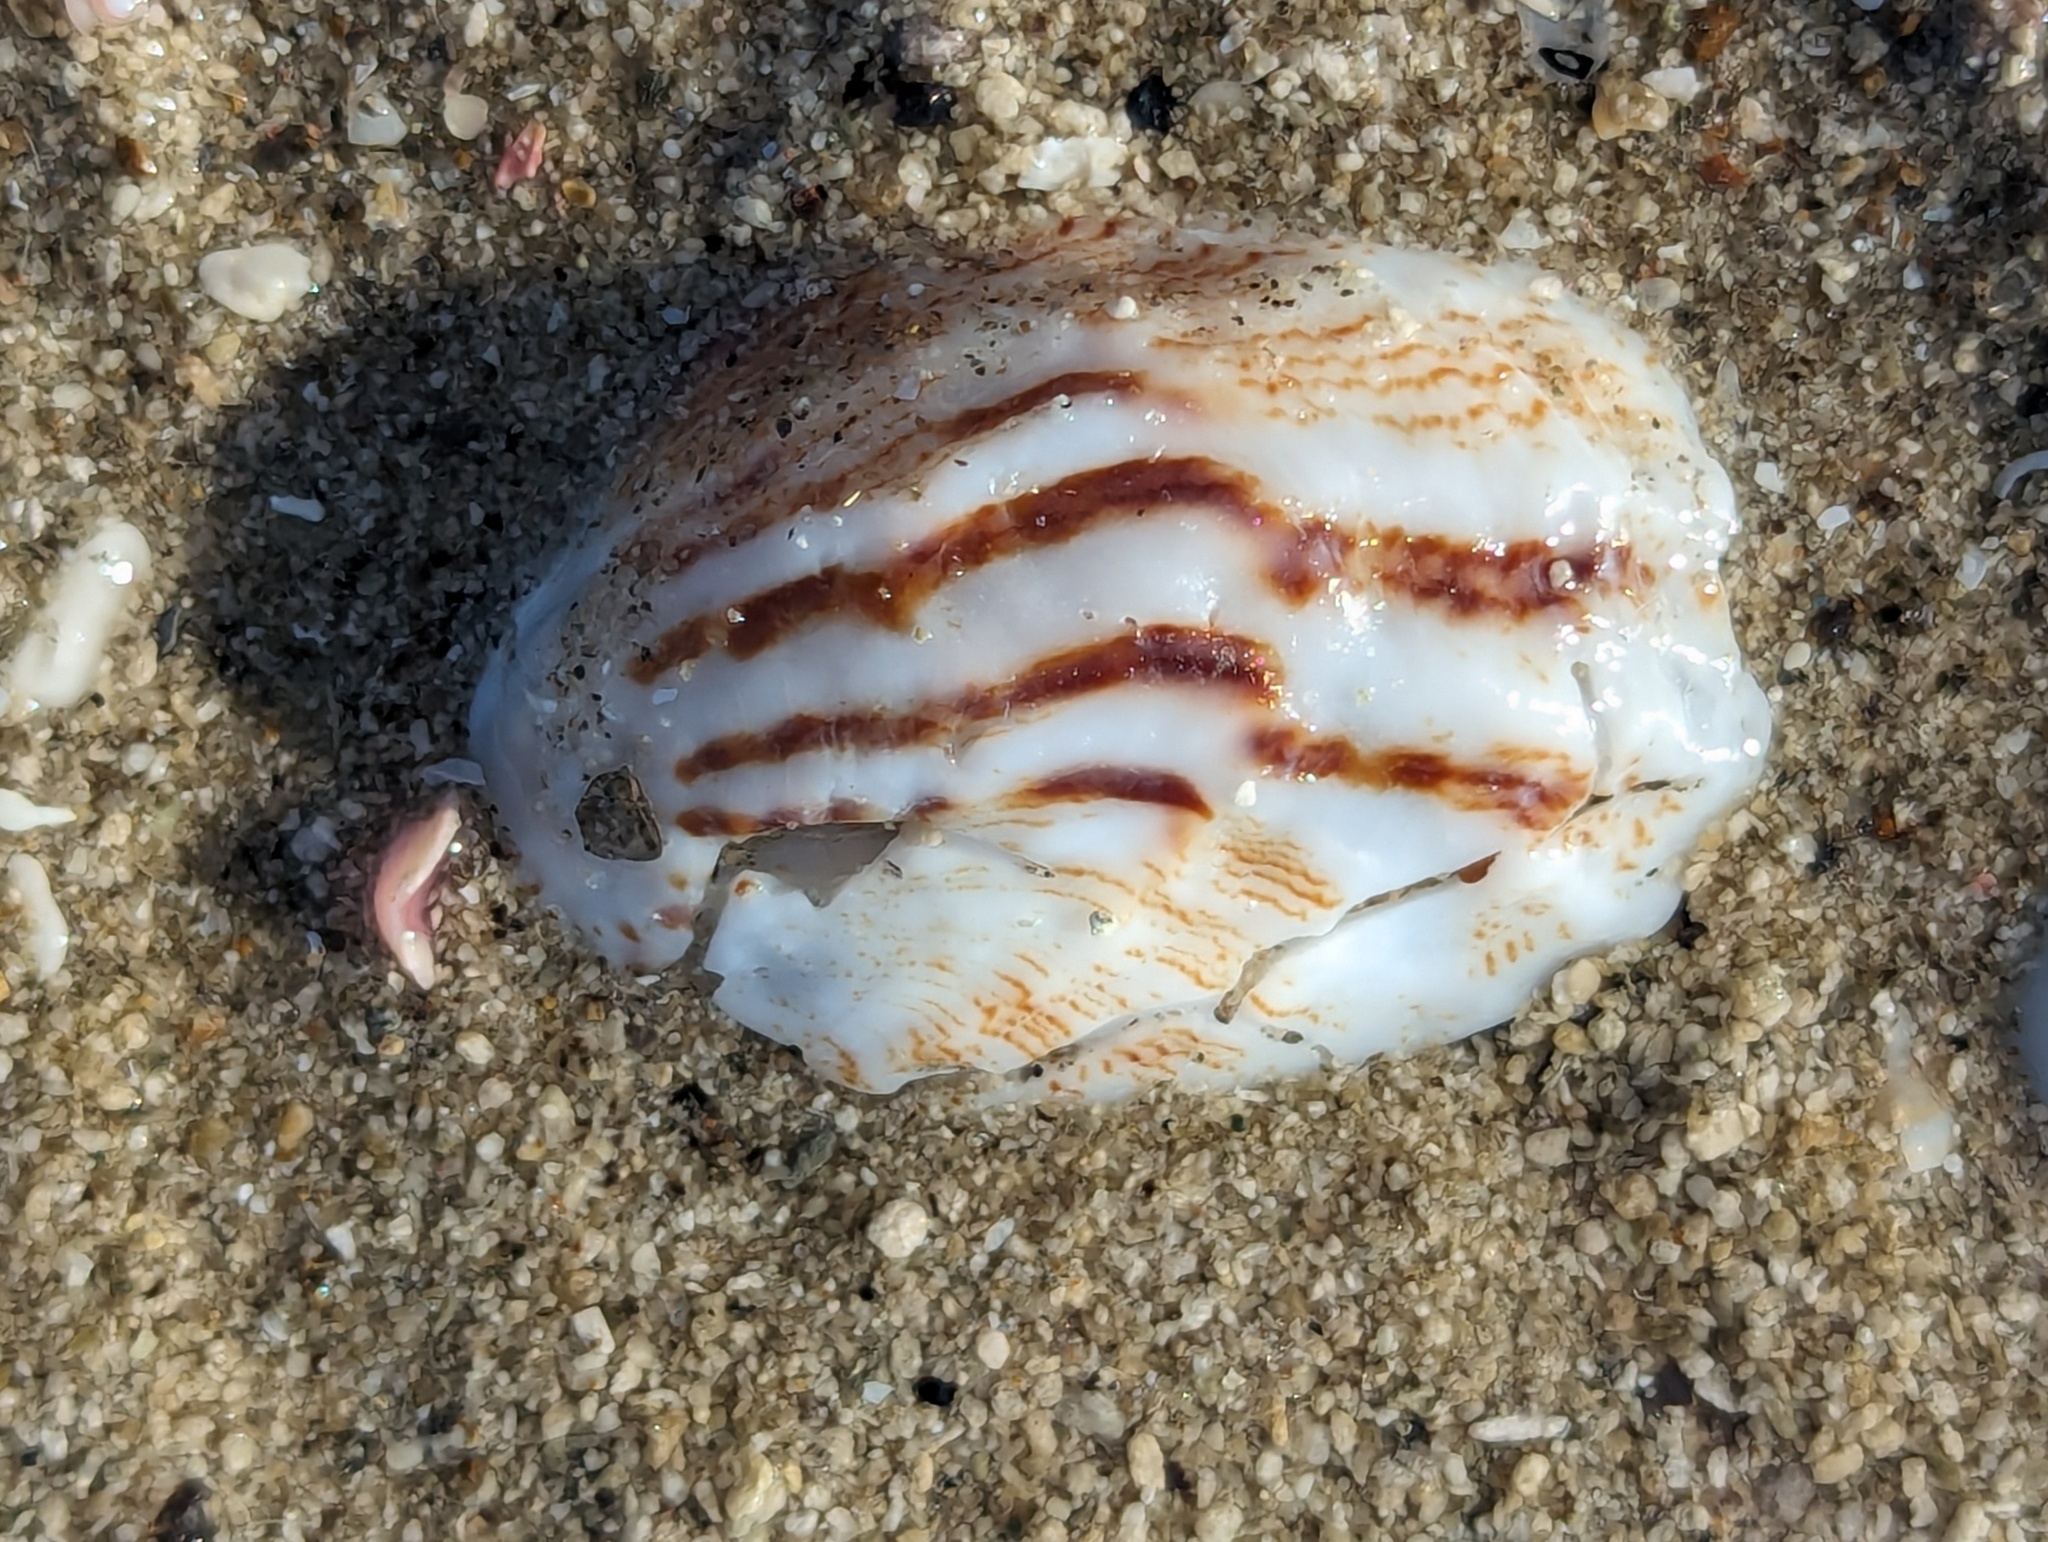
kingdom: Animalia
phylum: Mollusca
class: Gastropoda
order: Littorinimorpha
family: Calyptraeidae
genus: Maoricrypta
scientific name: Maoricrypta costata
